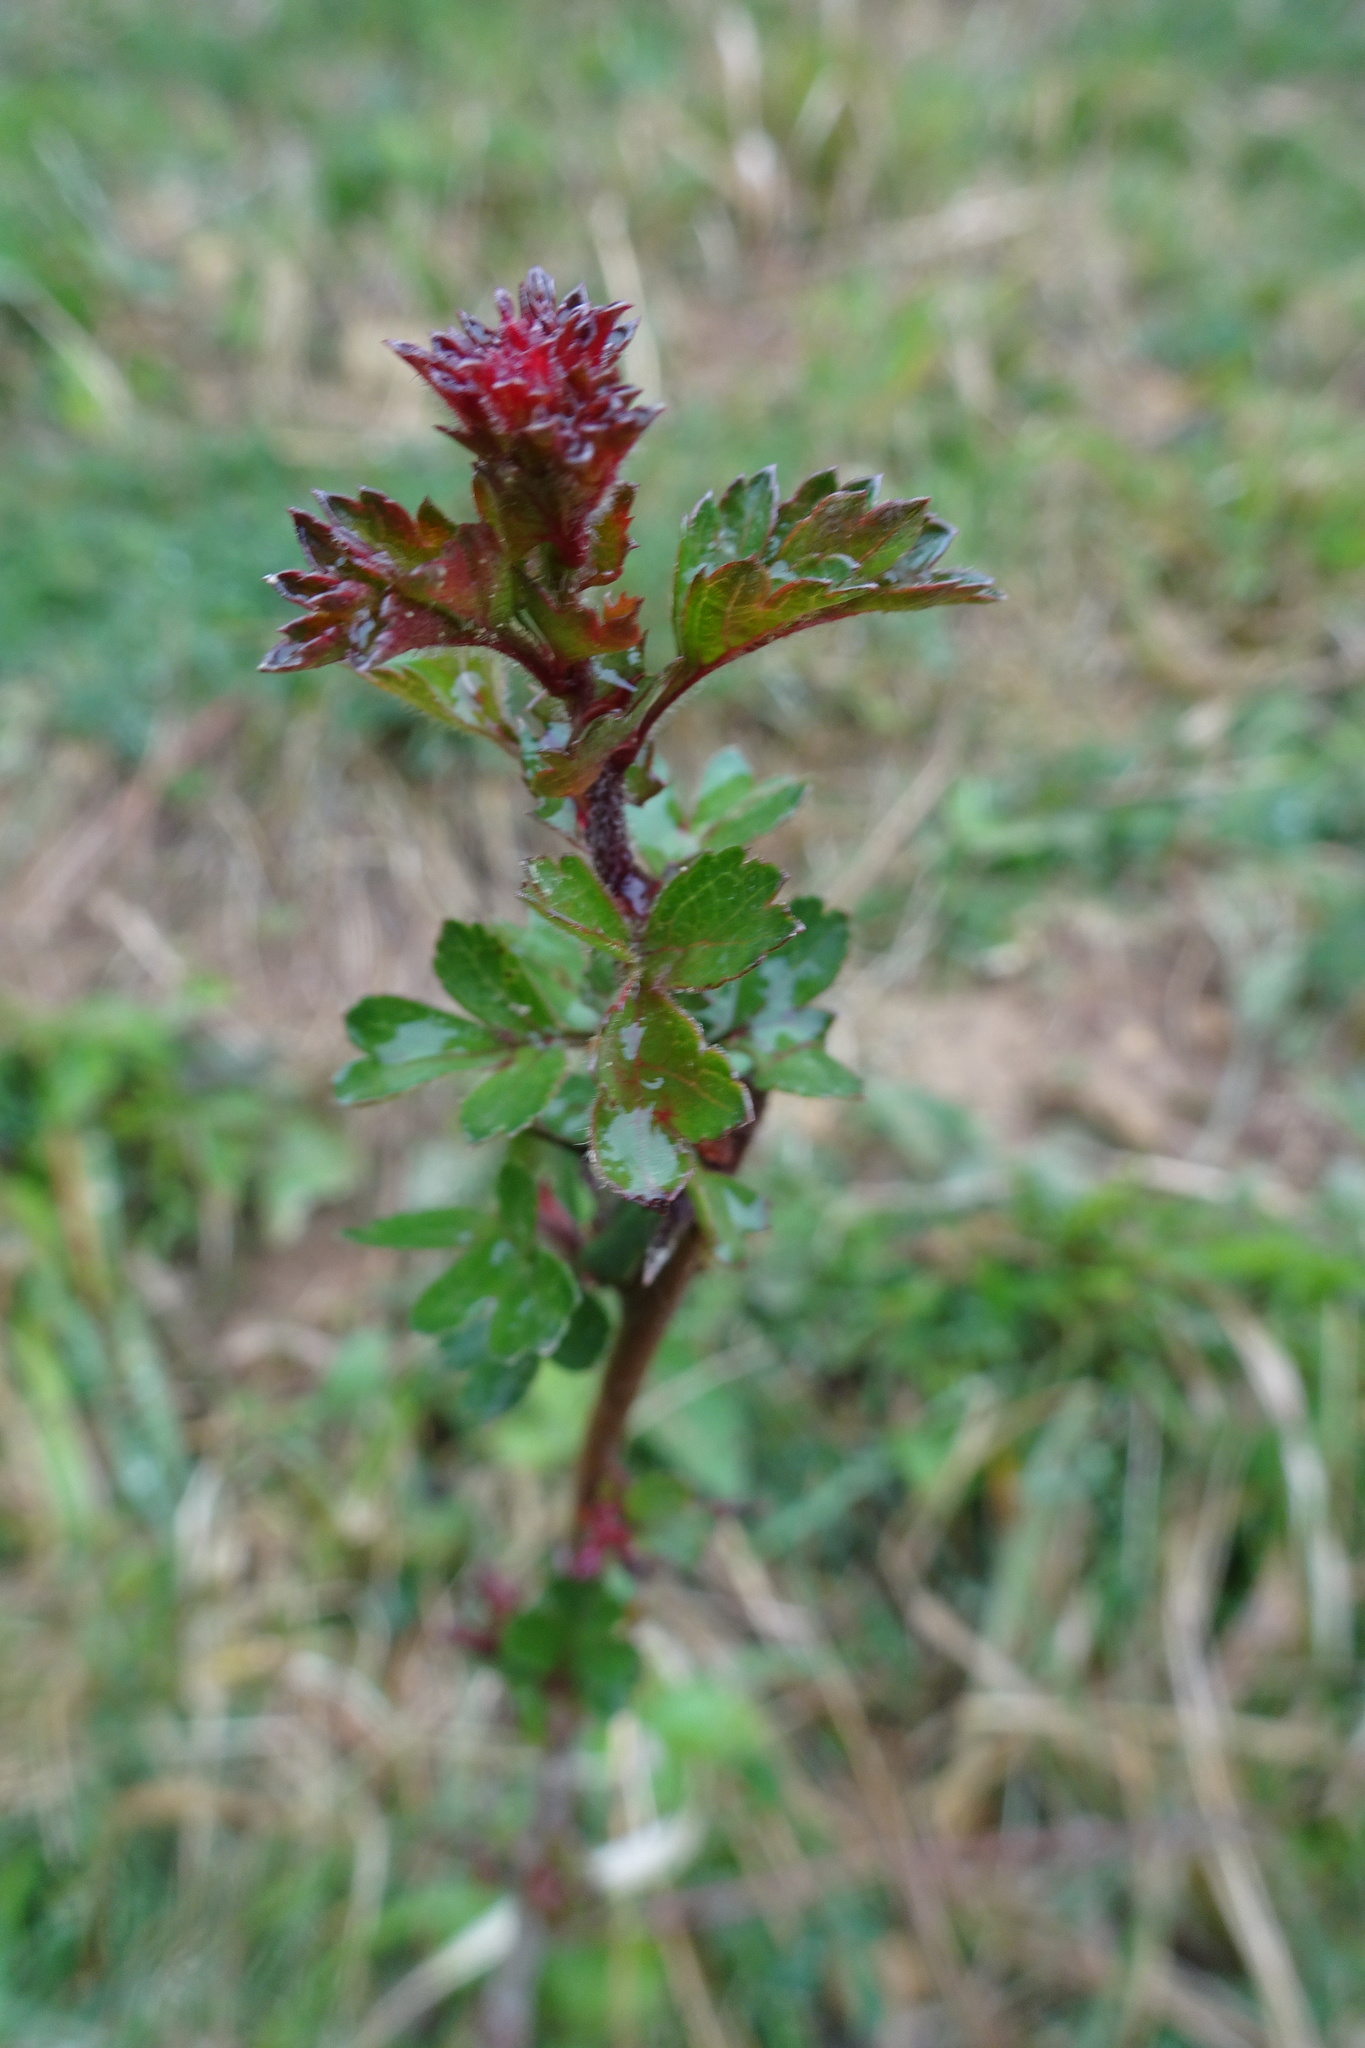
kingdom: Plantae
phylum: Tracheophyta
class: Magnoliopsida
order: Rosales
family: Rosaceae
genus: Crataegus
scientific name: Crataegus monogyna
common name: Hawthorn
